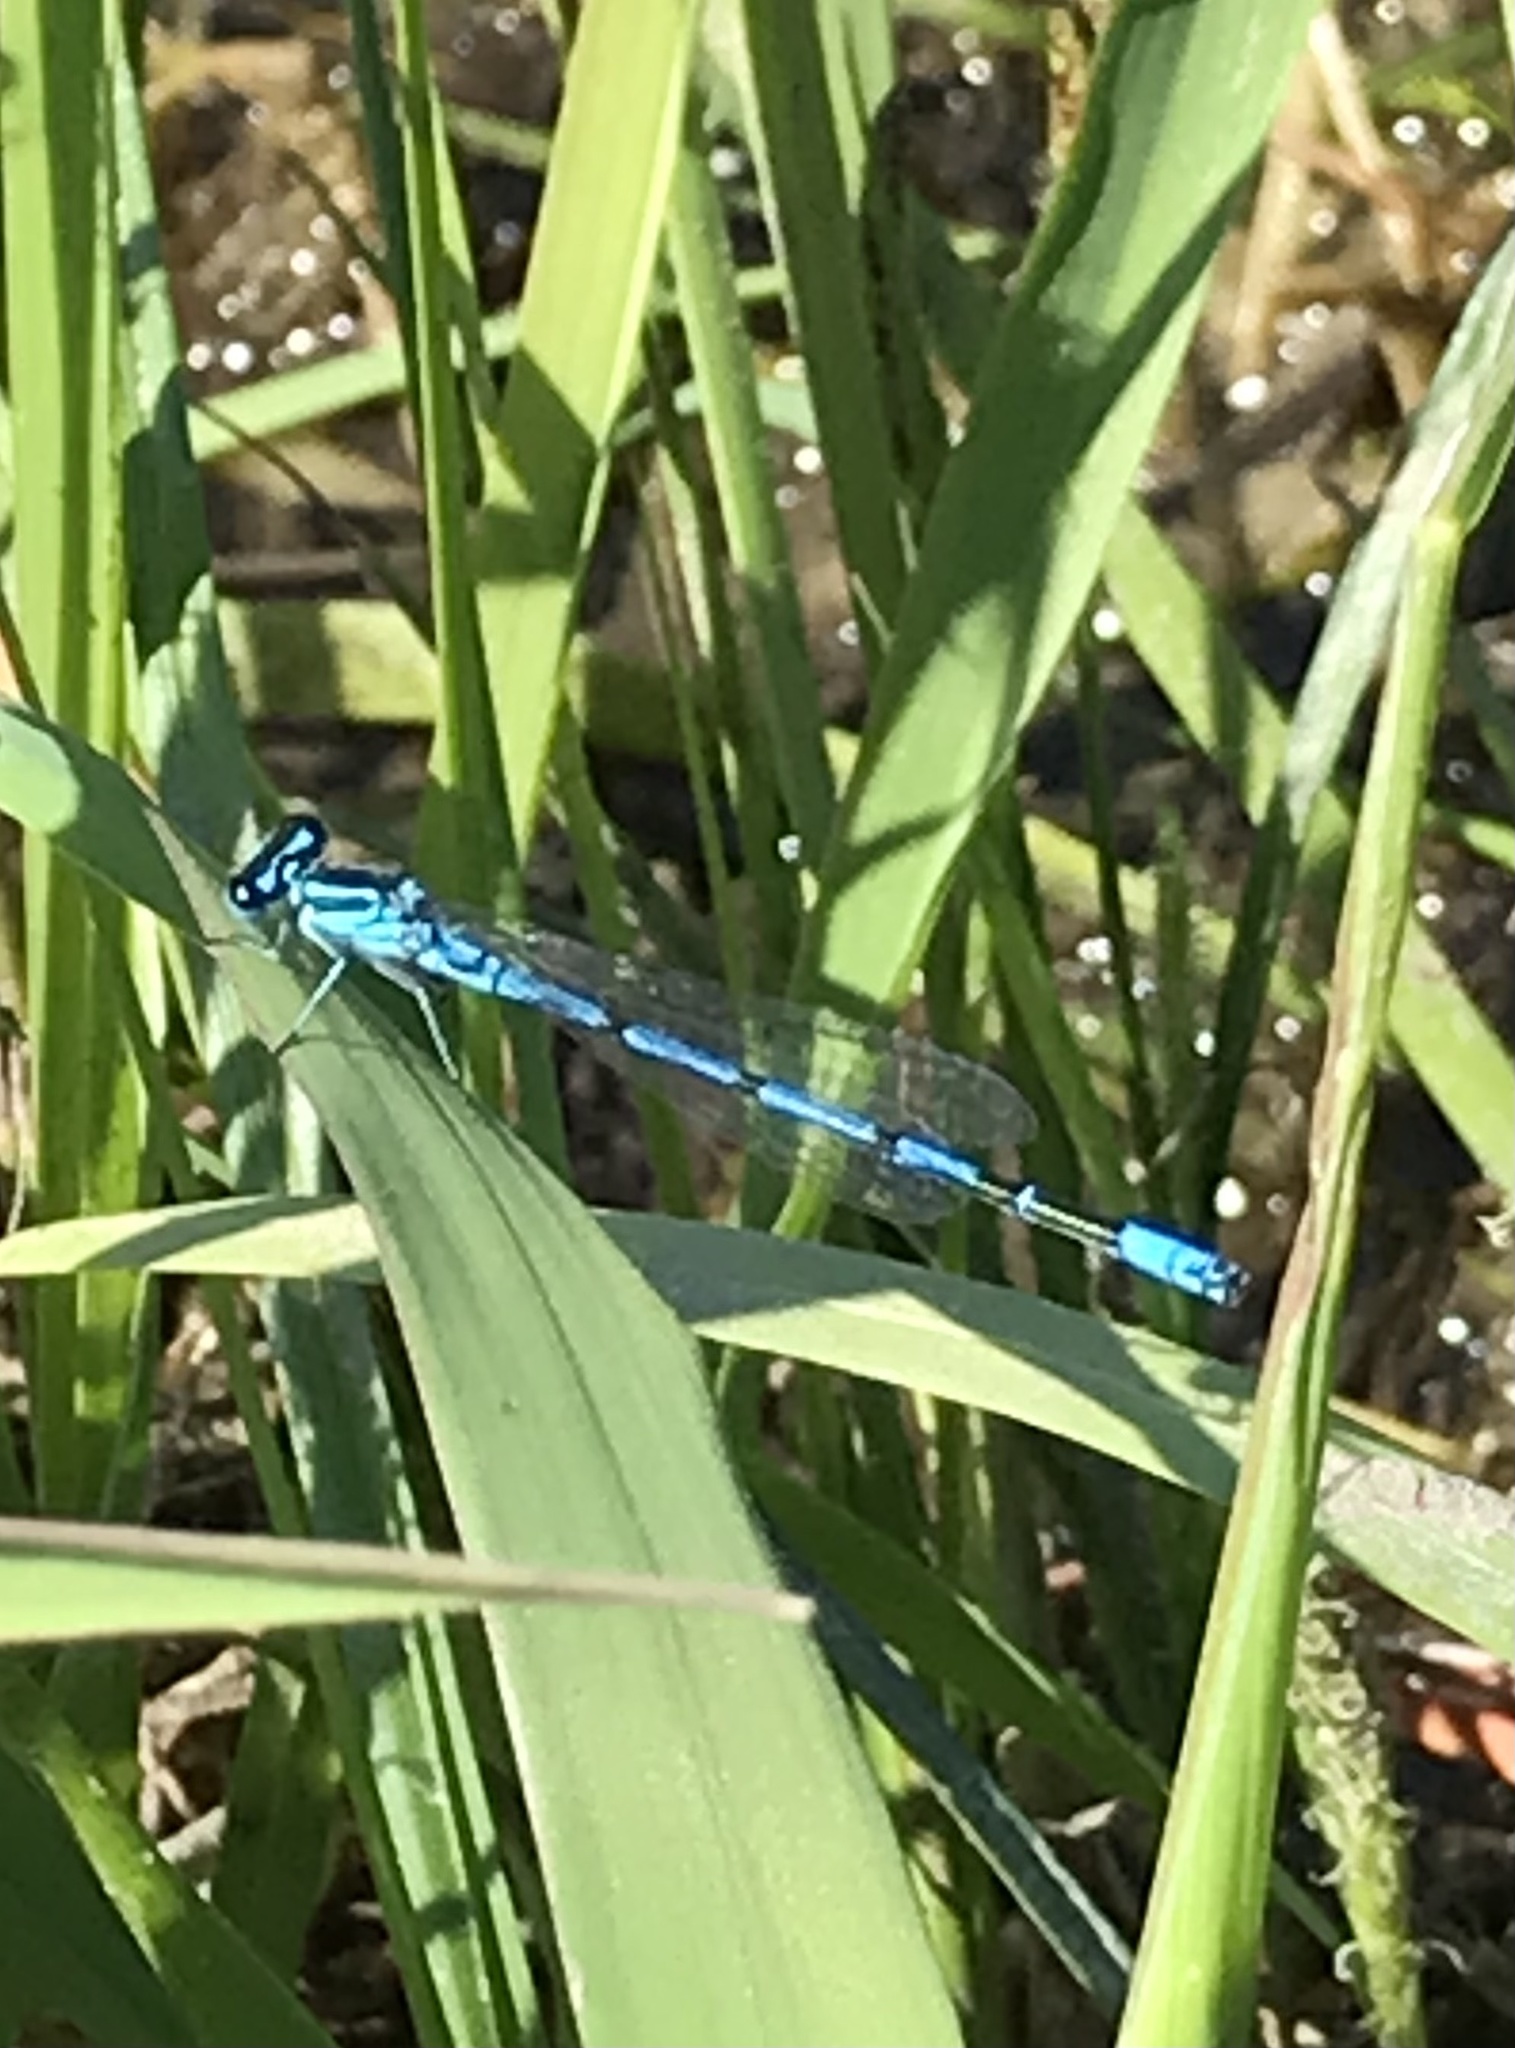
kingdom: Animalia
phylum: Arthropoda
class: Insecta
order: Odonata
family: Coenagrionidae
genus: Coenagrion
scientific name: Coenagrion puella
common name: Azure damselfly
